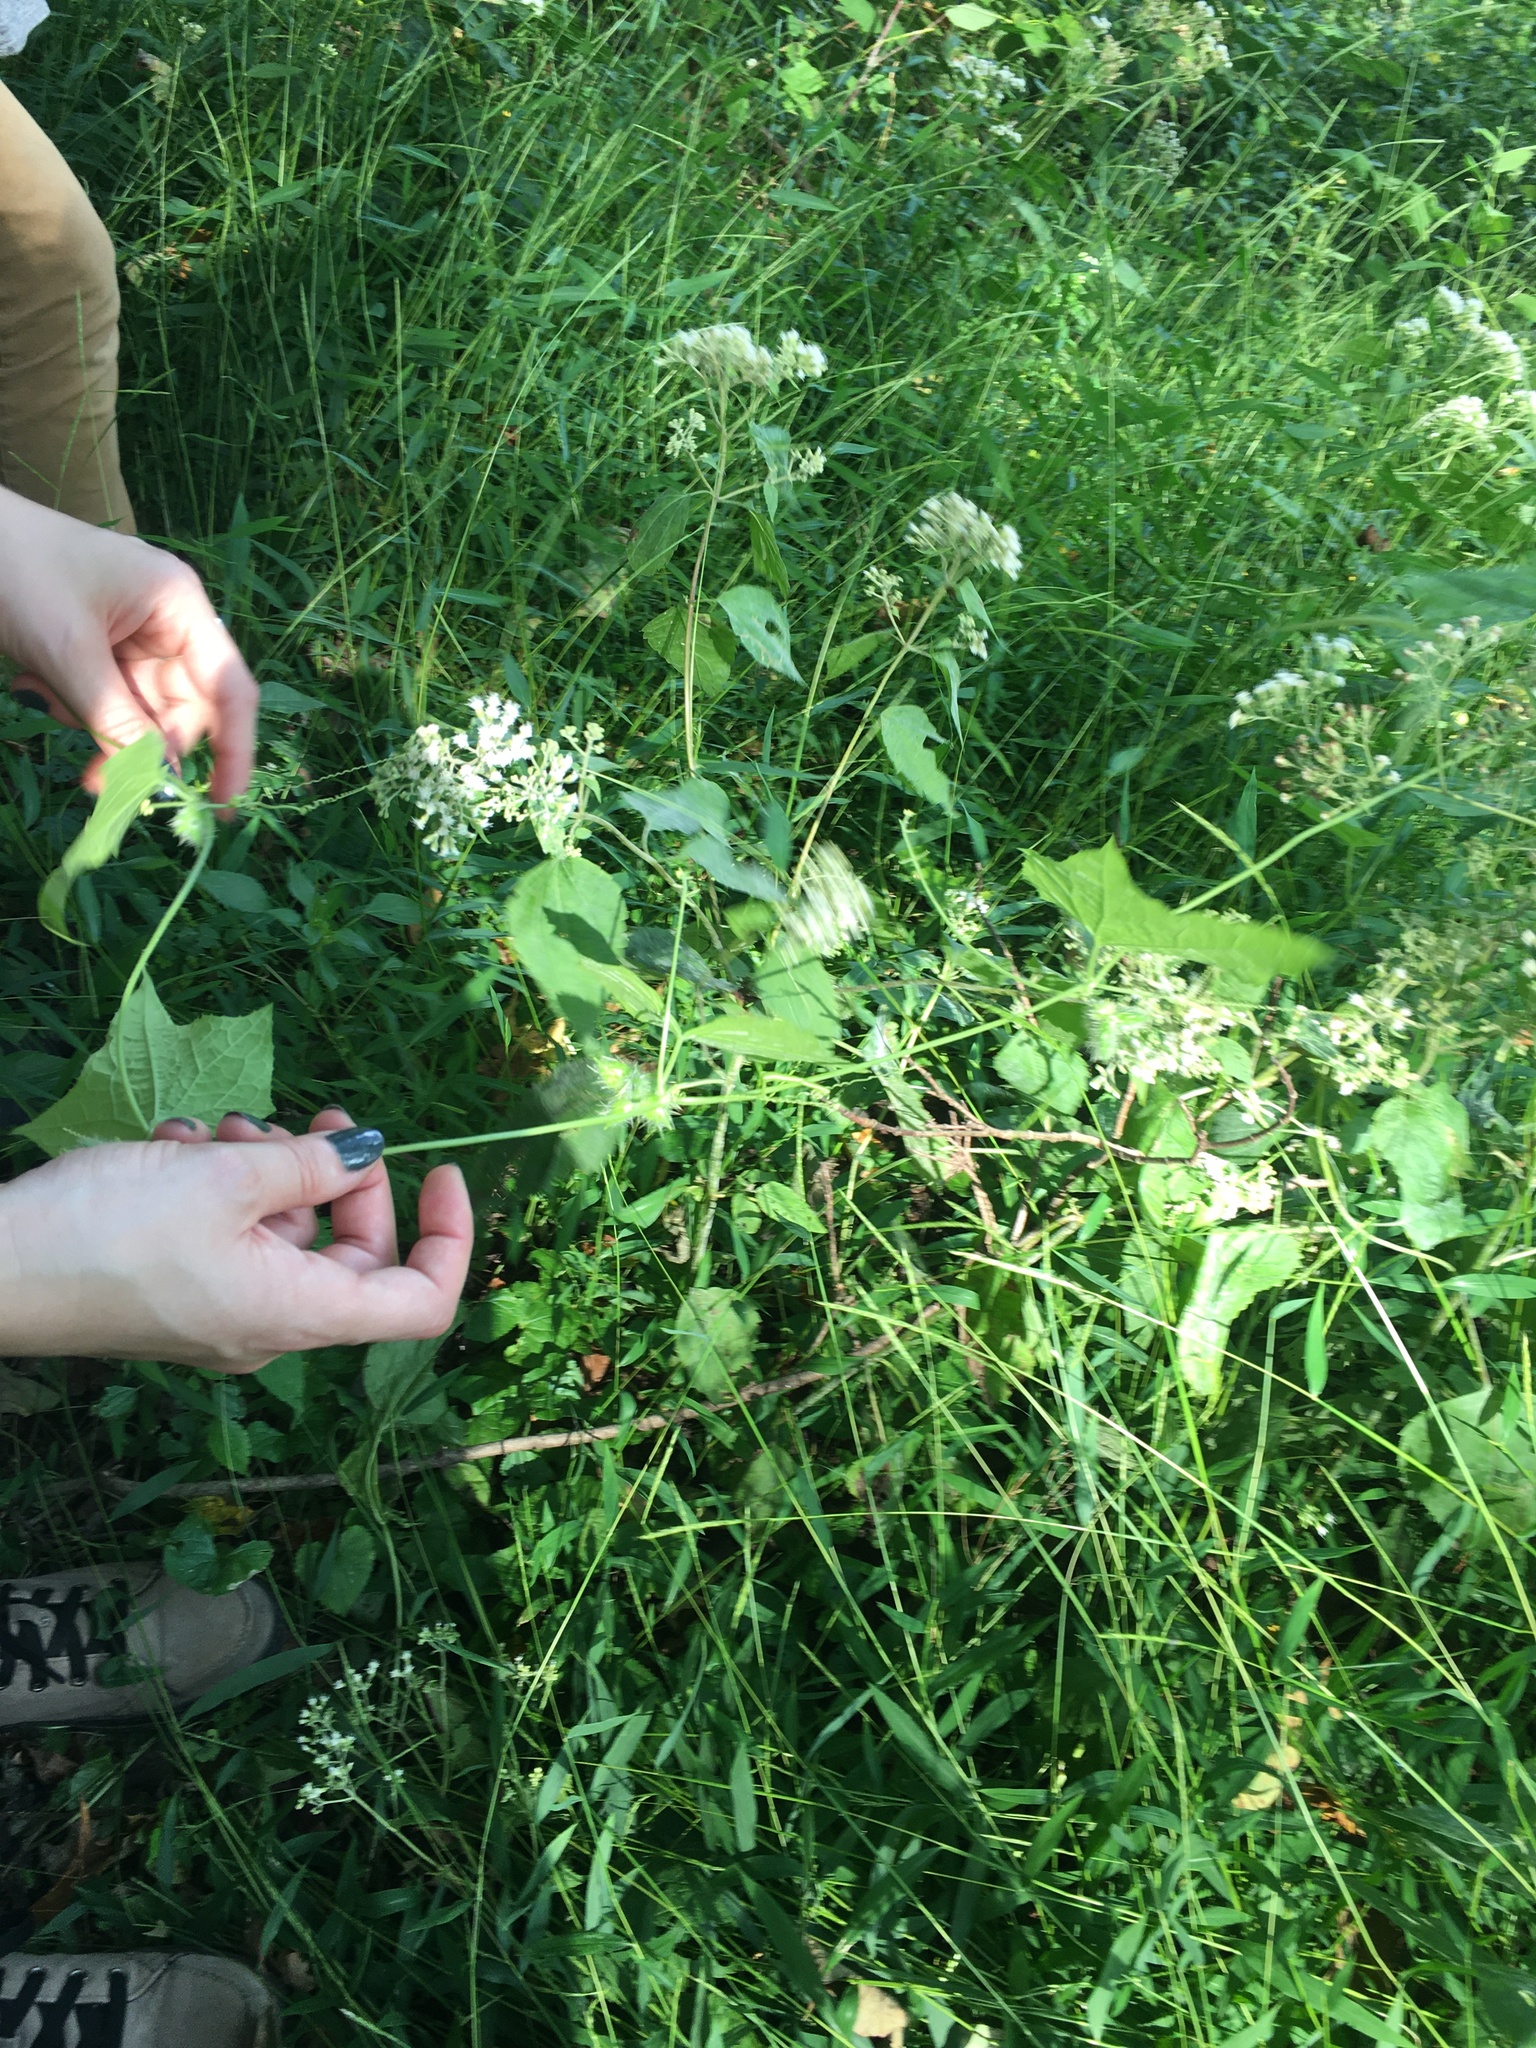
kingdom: Plantae
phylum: Tracheophyta
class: Magnoliopsida
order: Cucurbitales
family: Cucurbitaceae
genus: Sicyos
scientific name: Sicyos angulatus
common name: Angled burr cucumber
